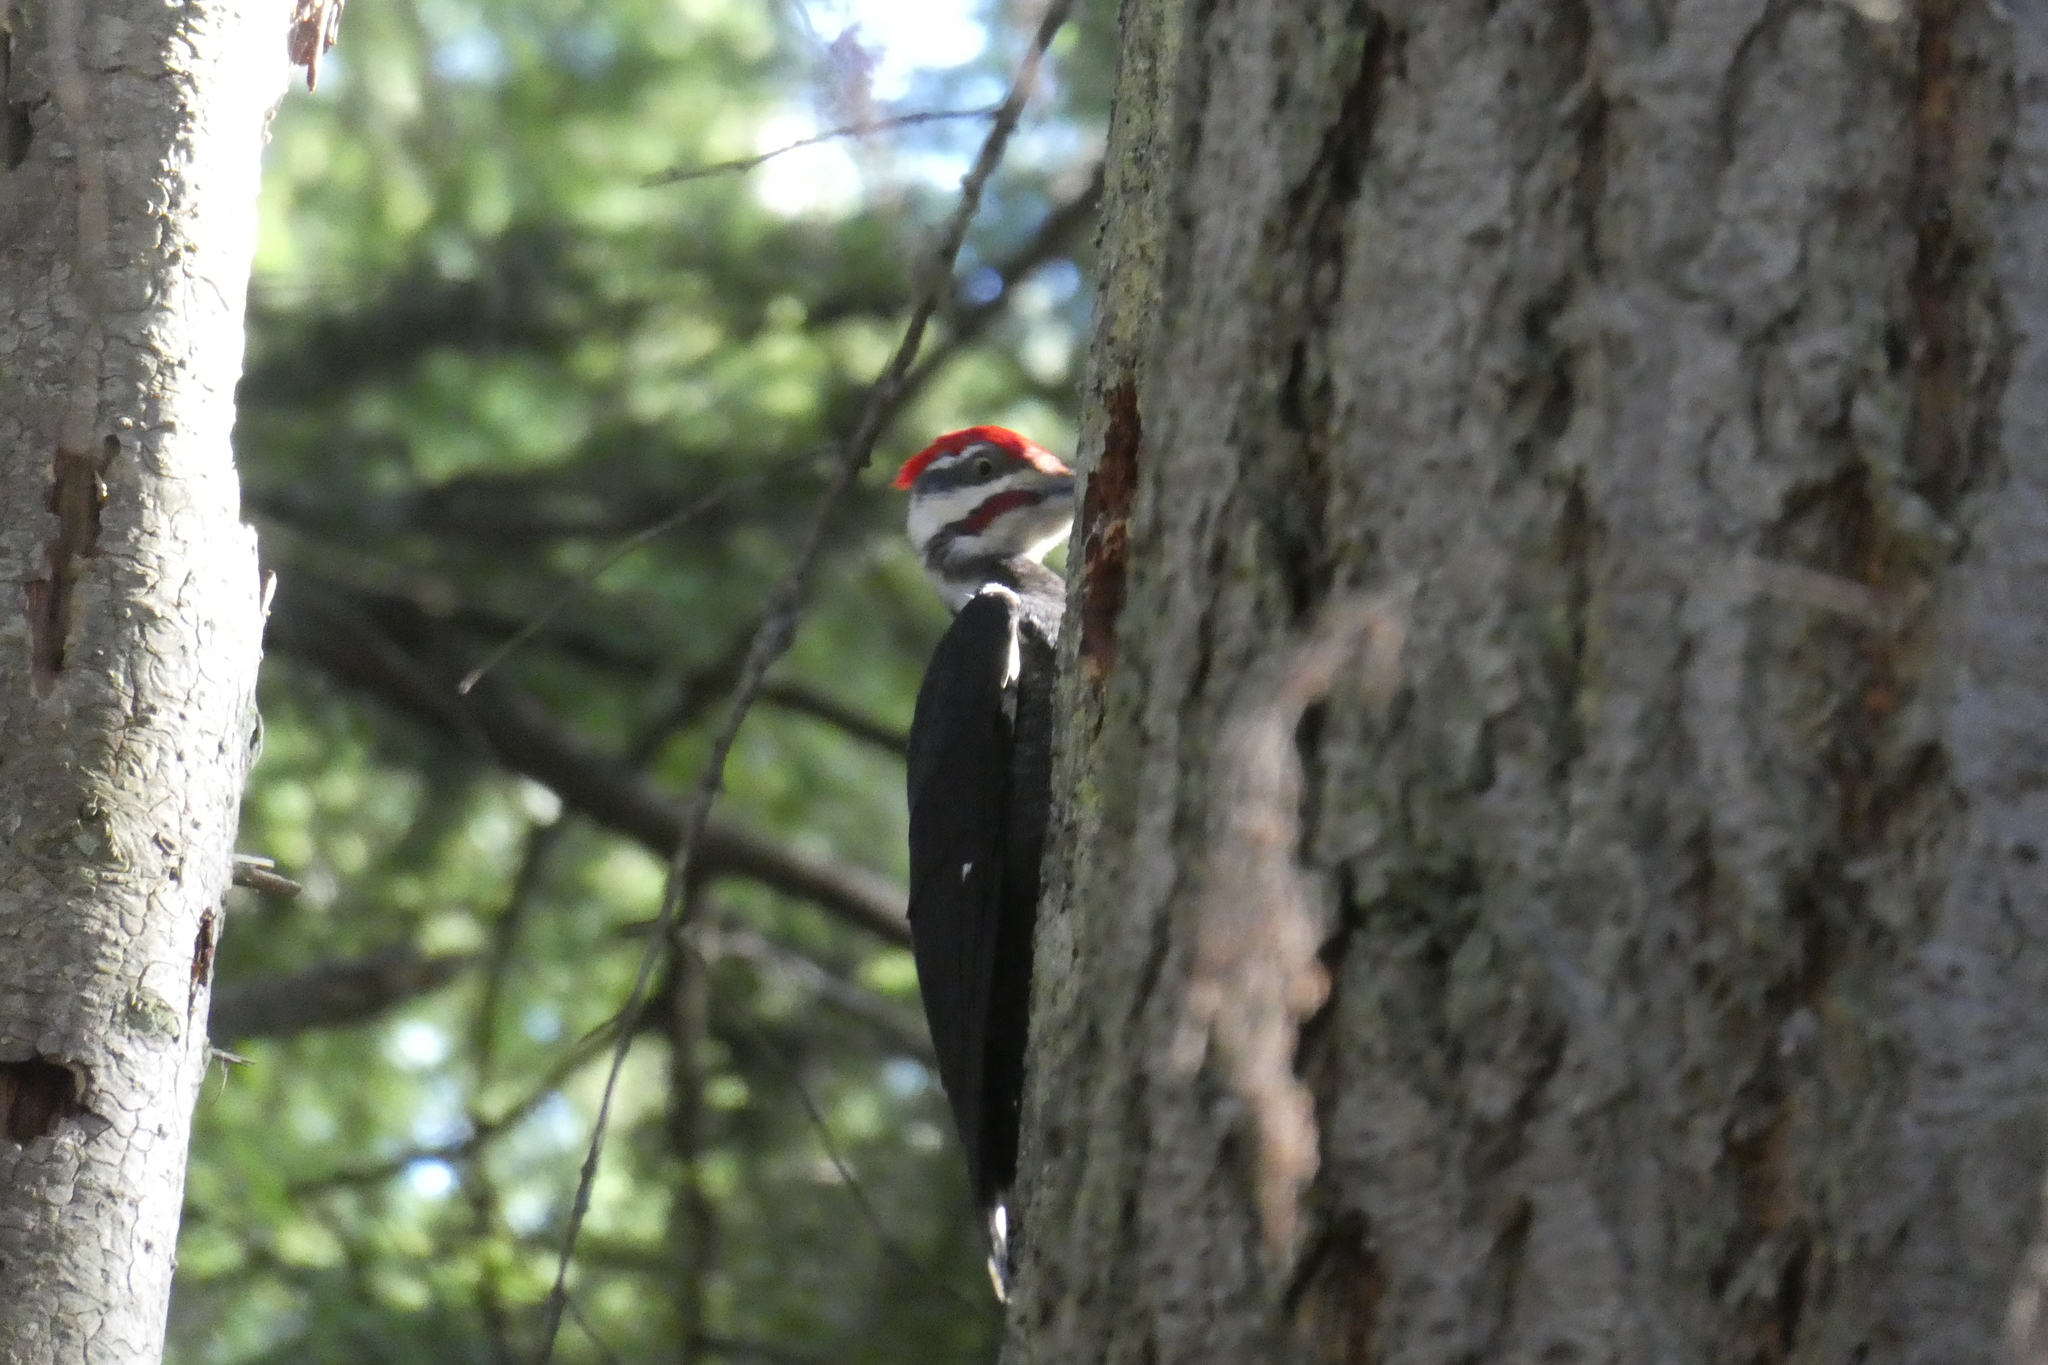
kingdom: Animalia
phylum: Chordata
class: Aves
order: Piciformes
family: Picidae
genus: Dryocopus
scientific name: Dryocopus pileatus
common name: Pileated woodpecker
